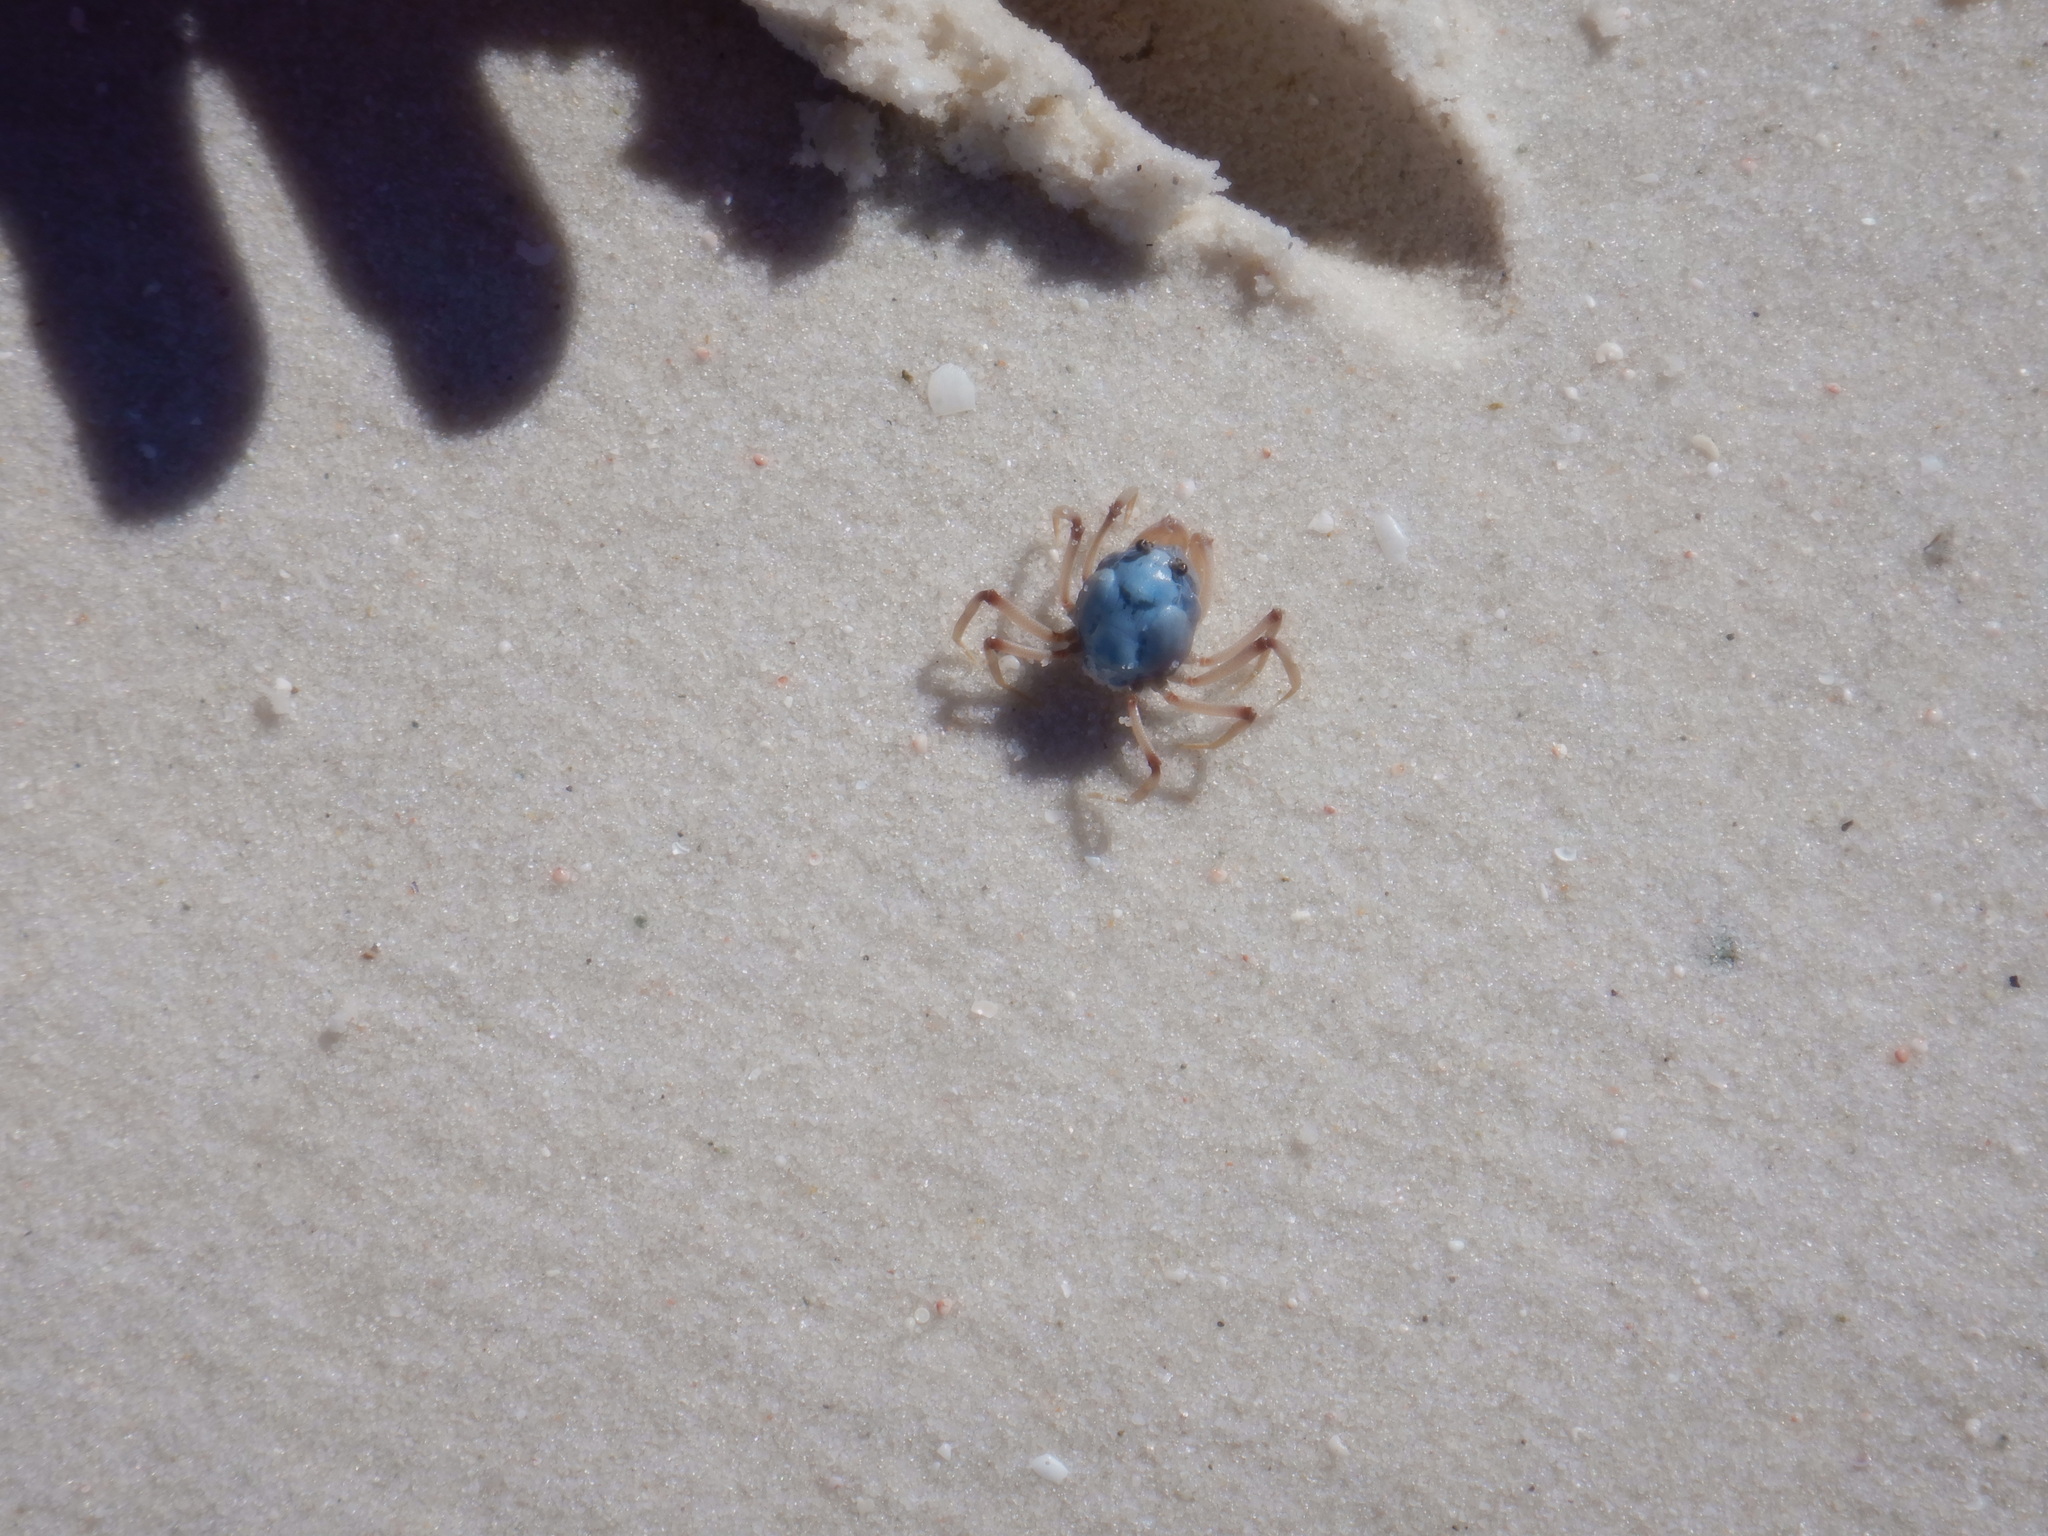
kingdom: Animalia
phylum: Arthropoda
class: Malacostraca
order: Decapoda
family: Mictyridae
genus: Mictyris
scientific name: Mictyris longicarpus
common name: Light-blue soldier crab
